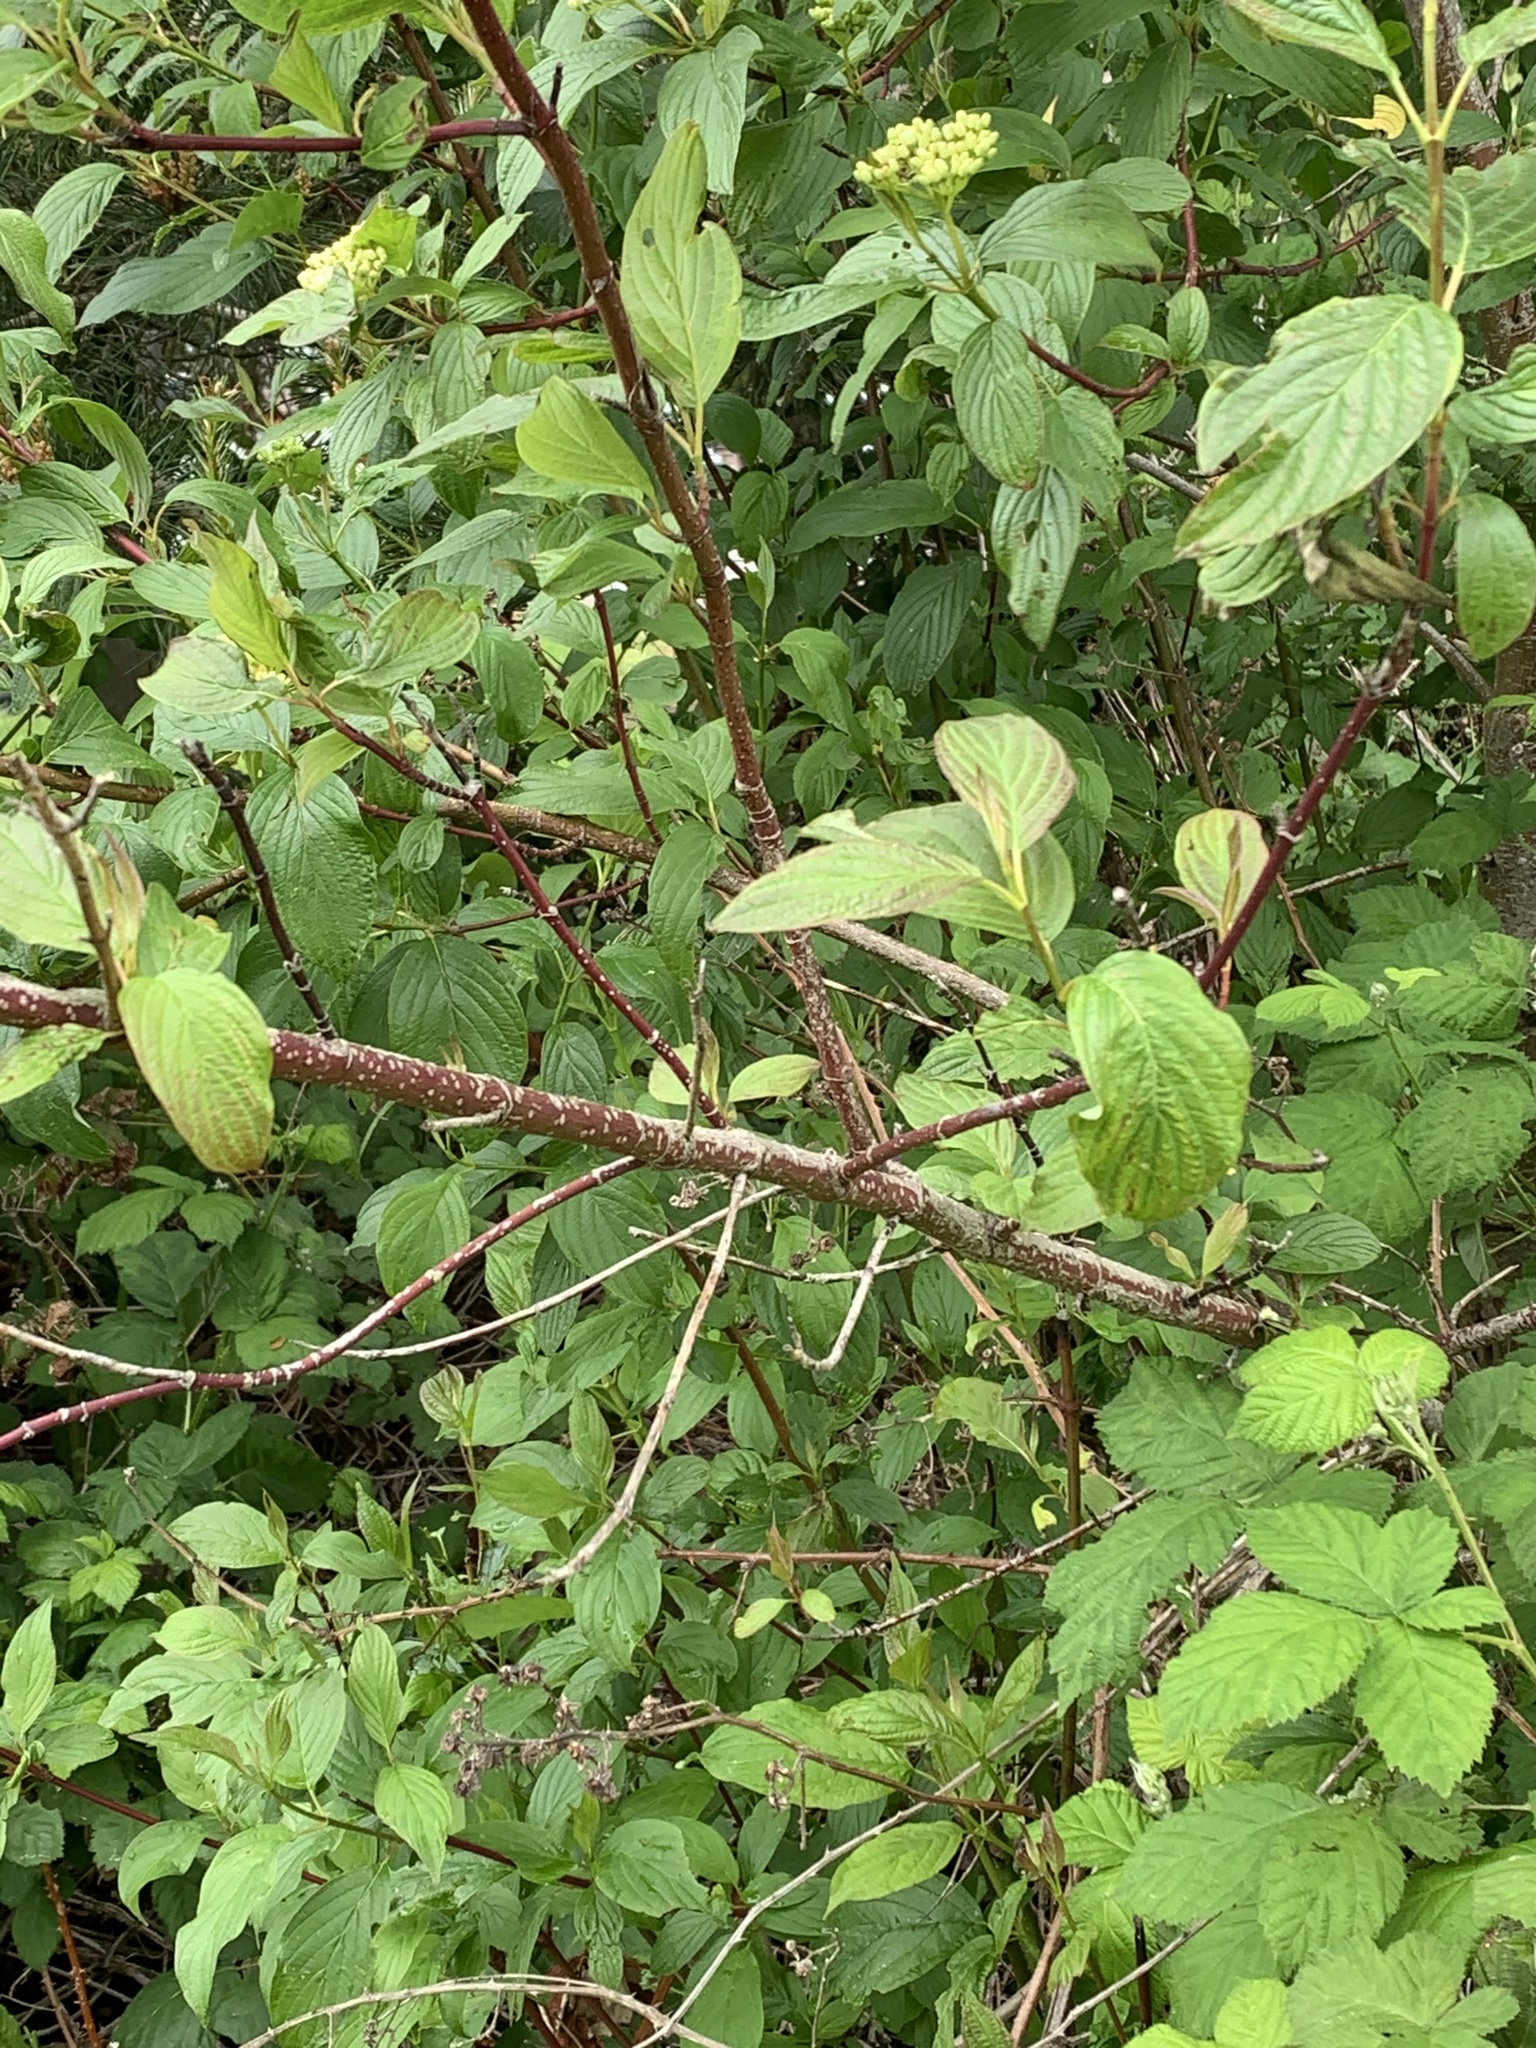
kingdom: Plantae
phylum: Tracheophyta
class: Magnoliopsida
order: Cornales
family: Cornaceae
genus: Cornus
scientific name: Cornus sericea
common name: Red-osier dogwood
